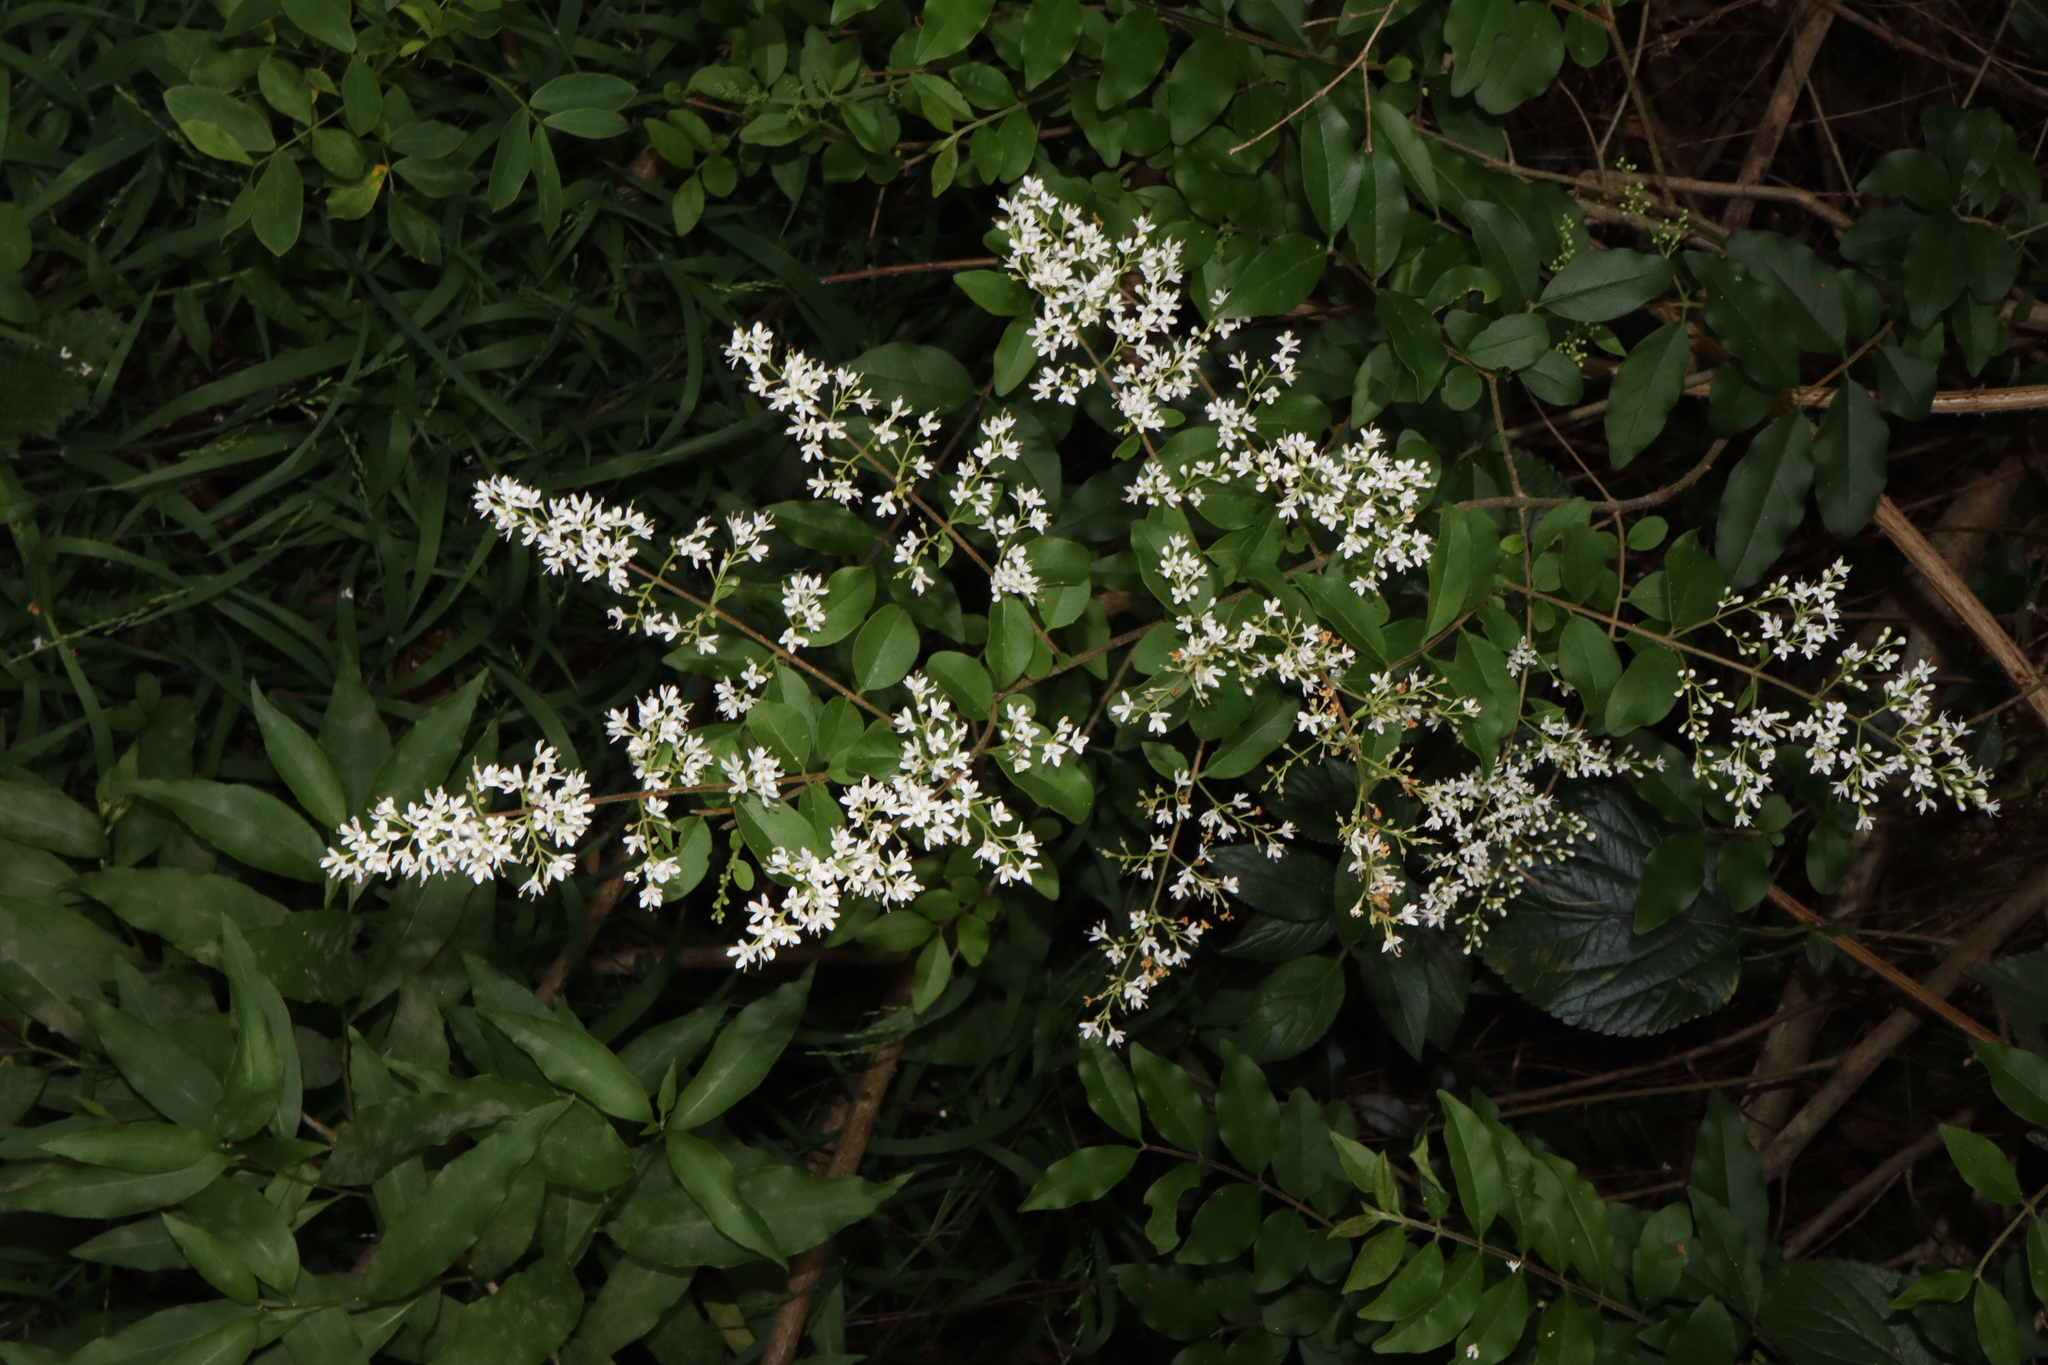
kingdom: Plantae
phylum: Tracheophyta
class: Magnoliopsida
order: Lamiales
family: Oleaceae
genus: Ligustrum
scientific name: Ligustrum sinense
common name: Chinese privet
